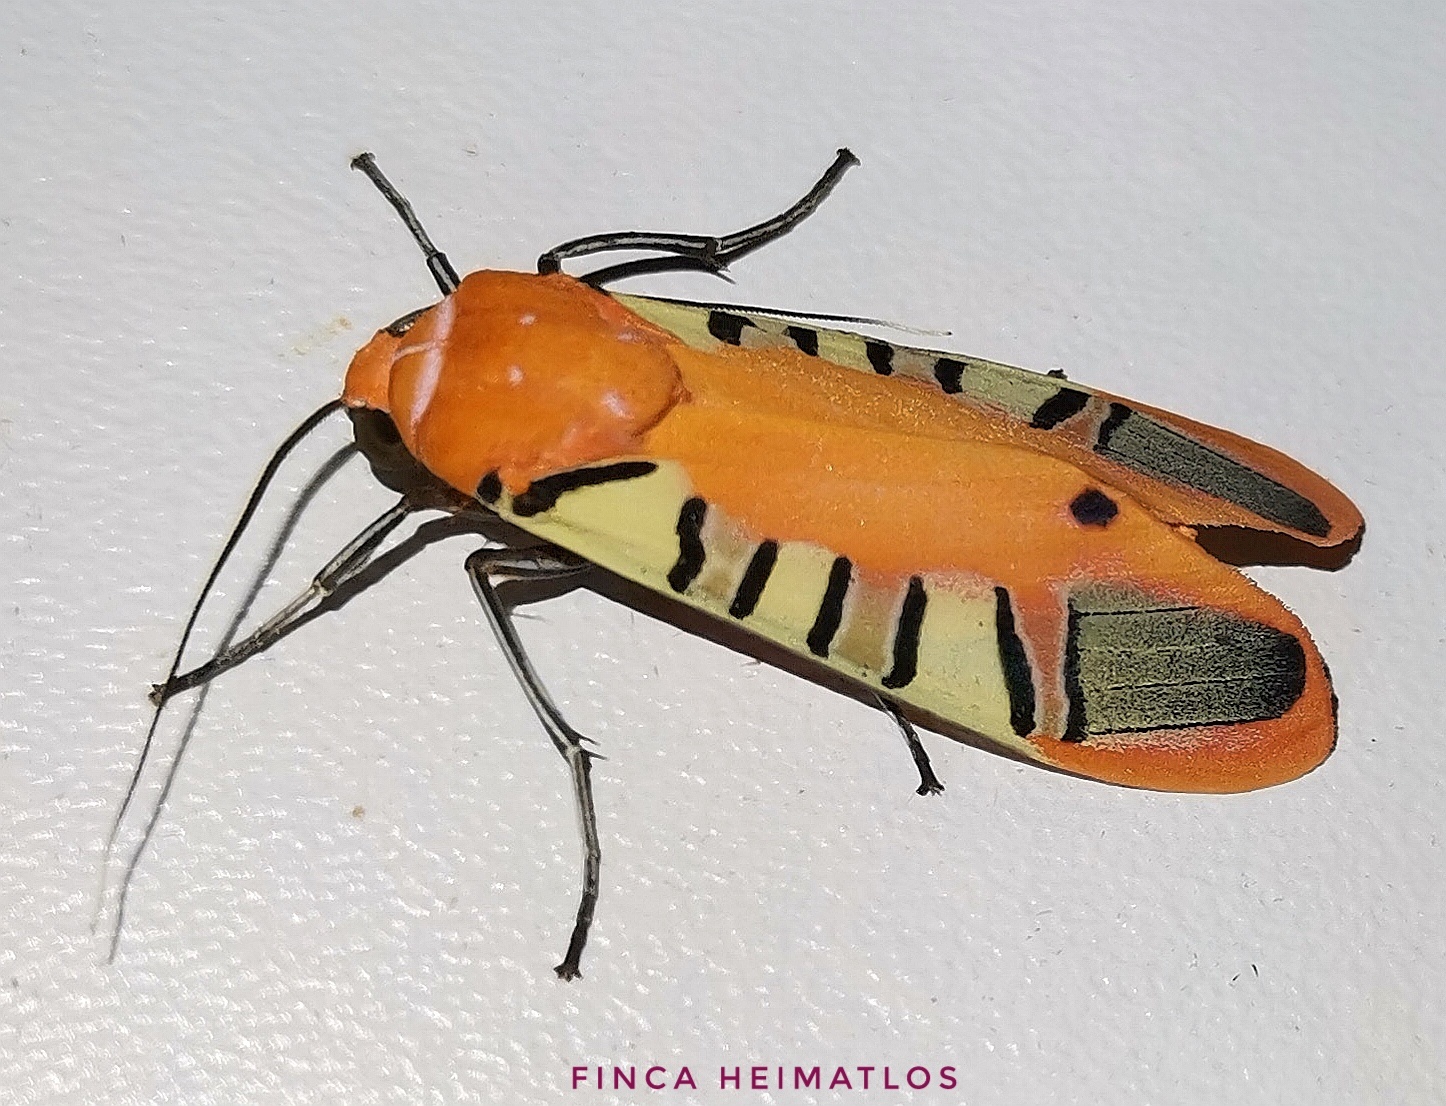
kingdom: Animalia
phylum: Arthropoda
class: Insecta
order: Lepidoptera
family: Erebidae
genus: Gorgonidia
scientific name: Gorgonidia buckleyi
